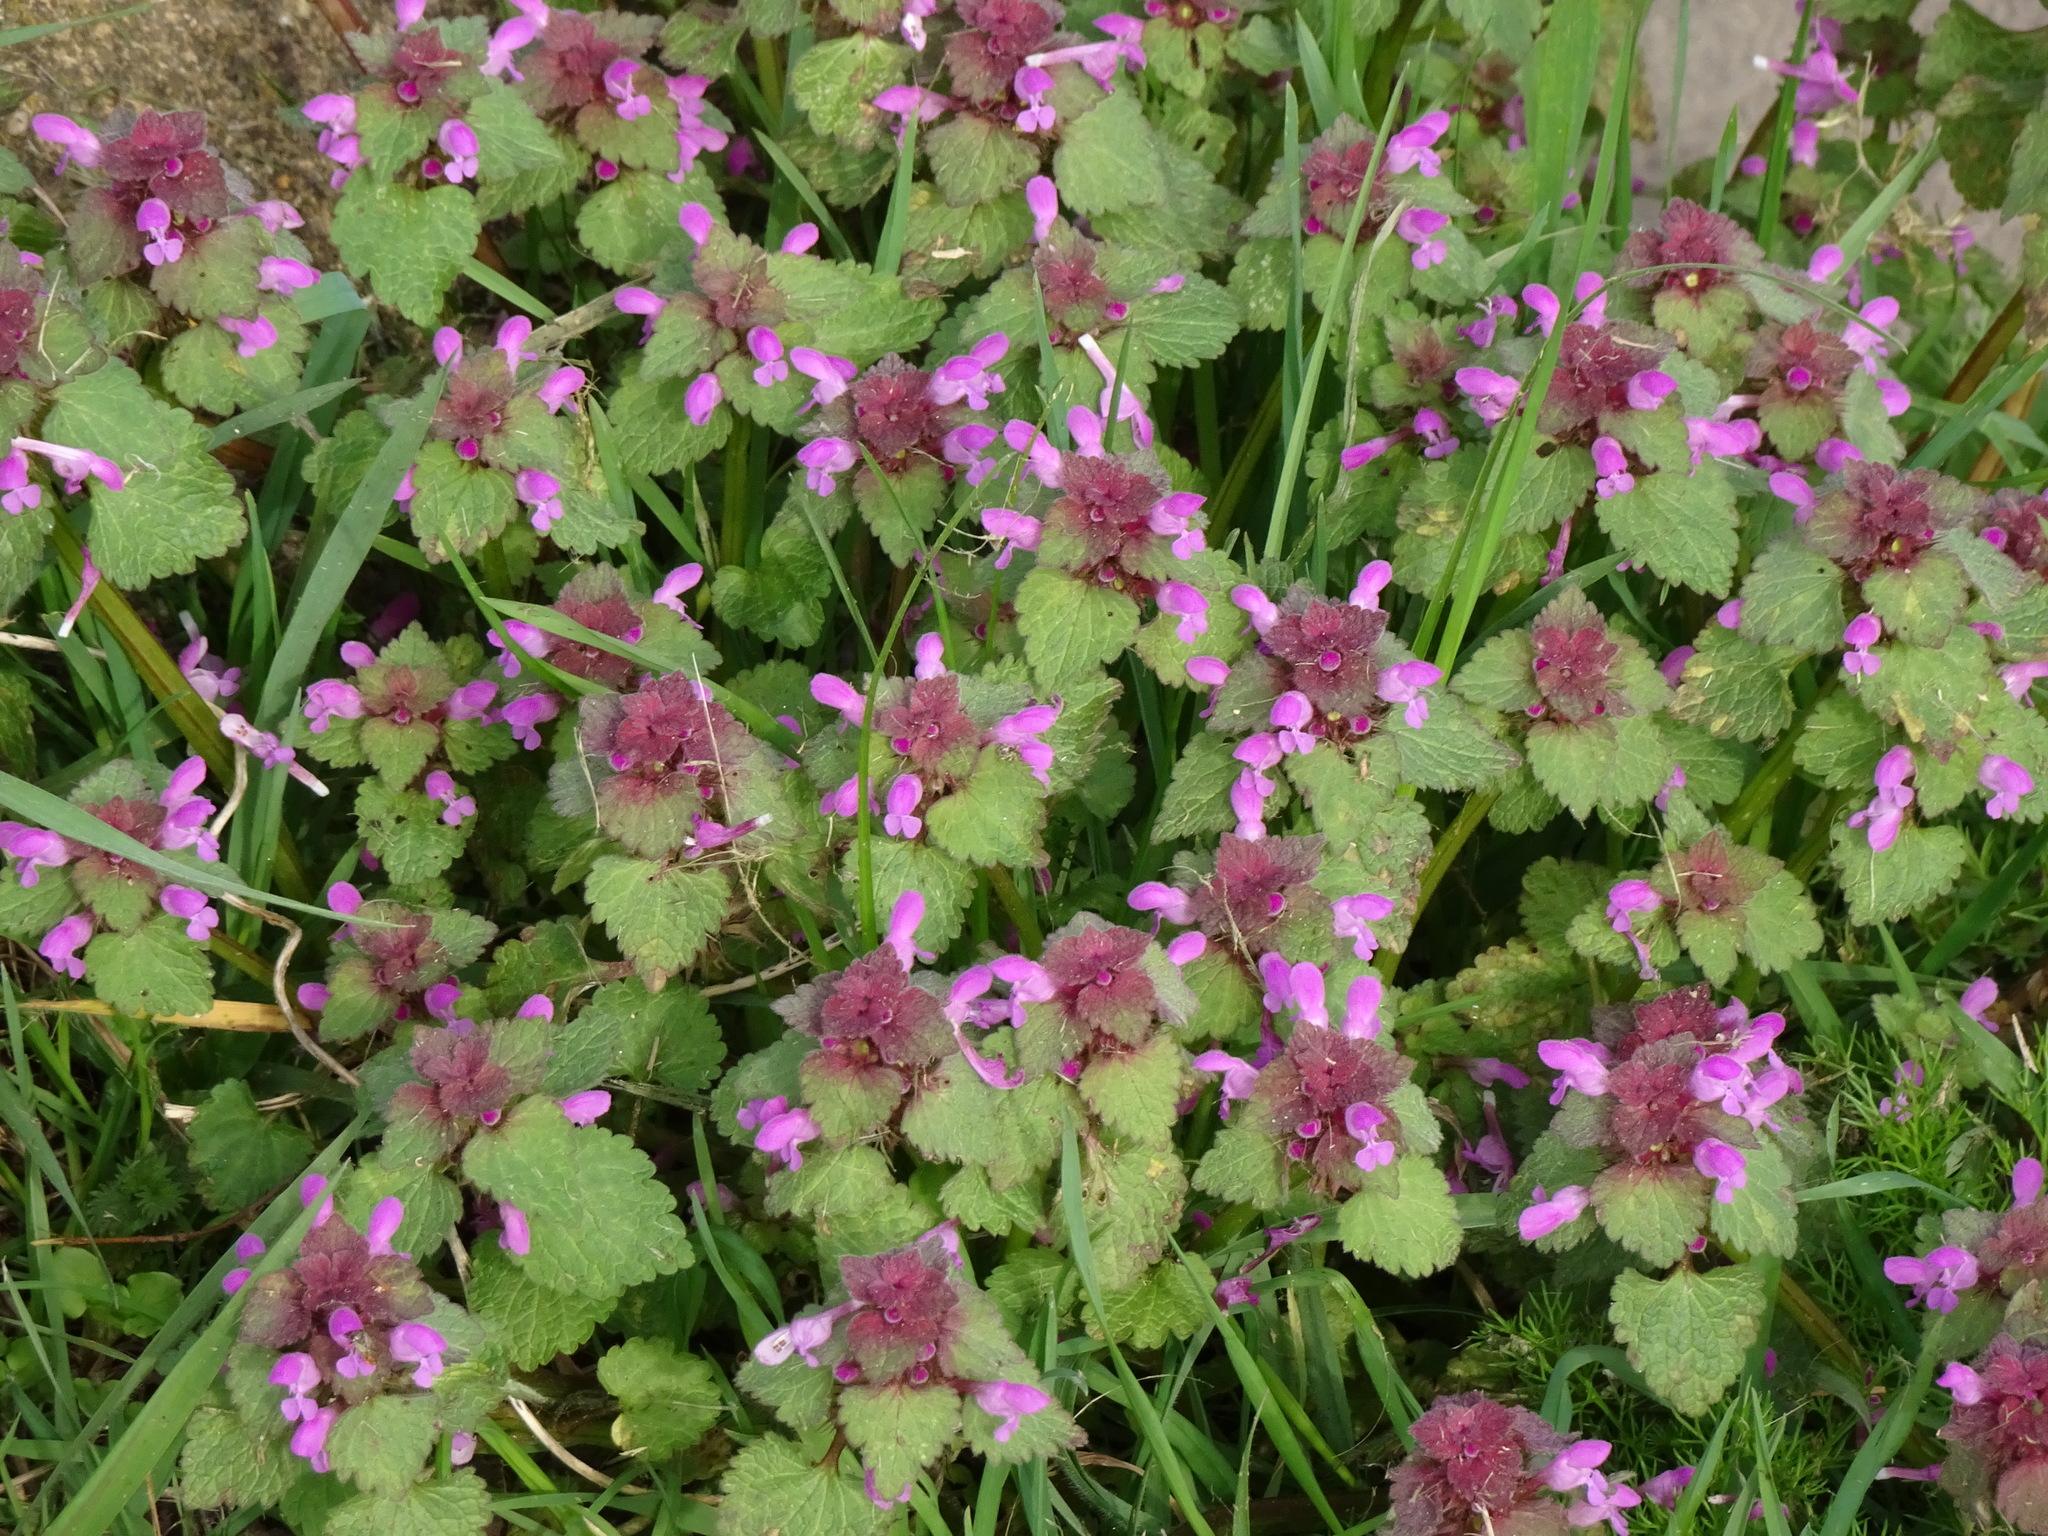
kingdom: Plantae
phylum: Tracheophyta
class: Magnoliopsida
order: Lamiales
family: Lamiaceae
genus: Lamium
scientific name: Lamium purpureum
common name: Red dead-nettle
